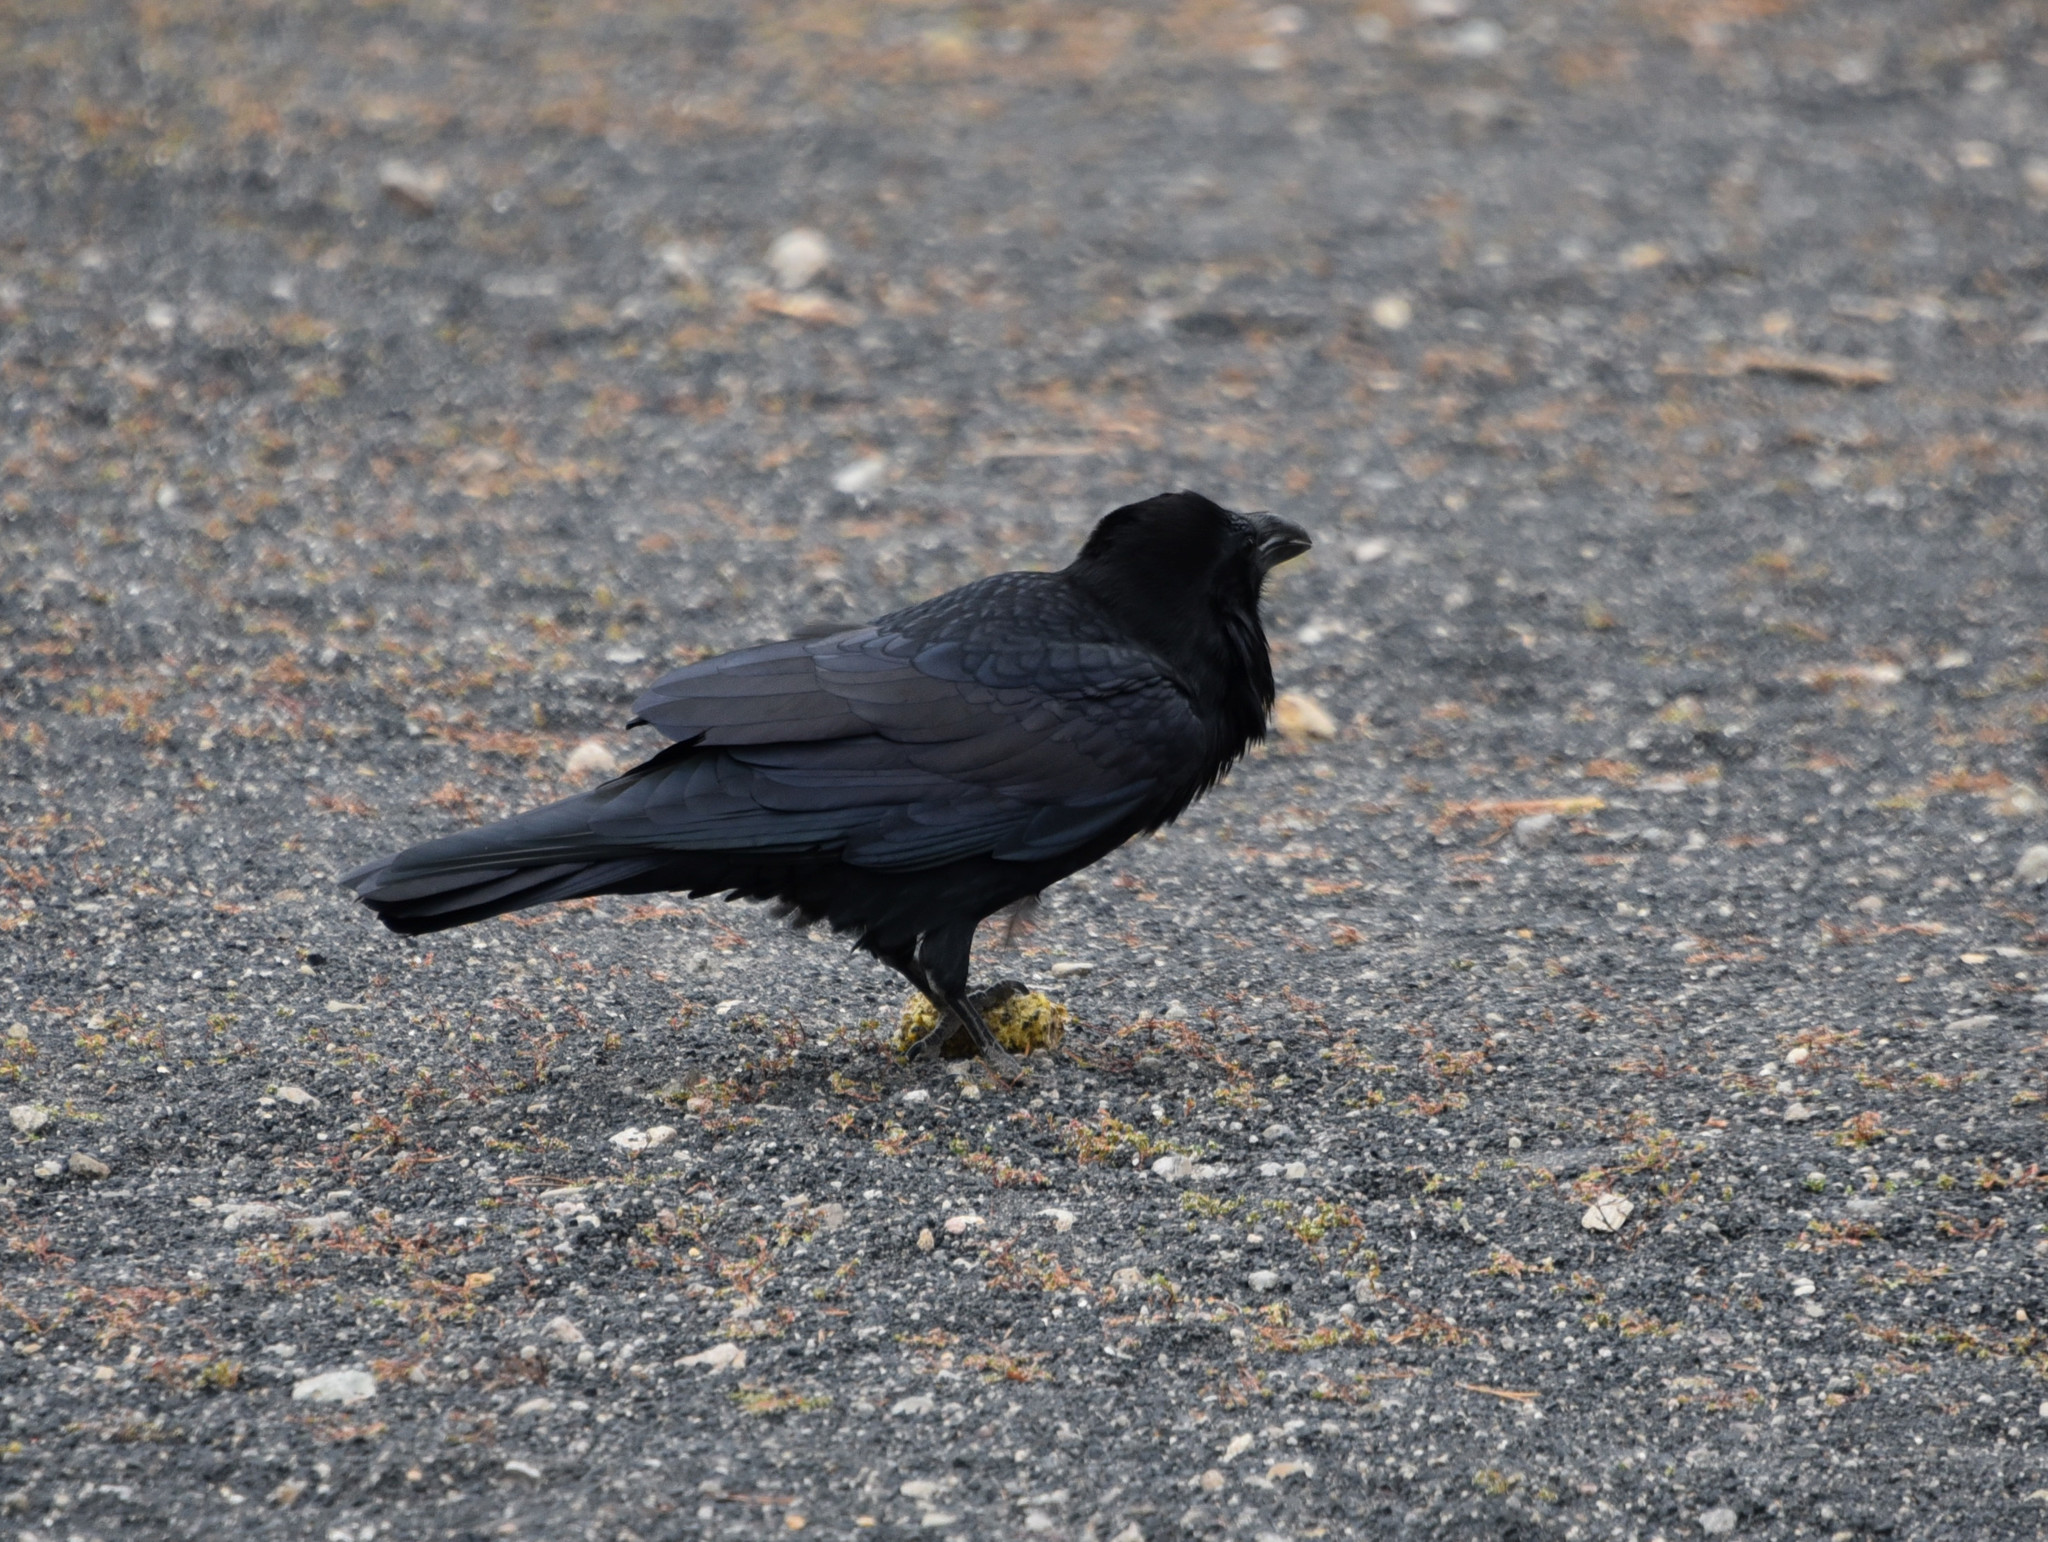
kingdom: Animalia
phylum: Chordata
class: Aves
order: Passeriformes
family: Corvidae
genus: Corvus
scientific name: Corvus corax
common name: Common raven
